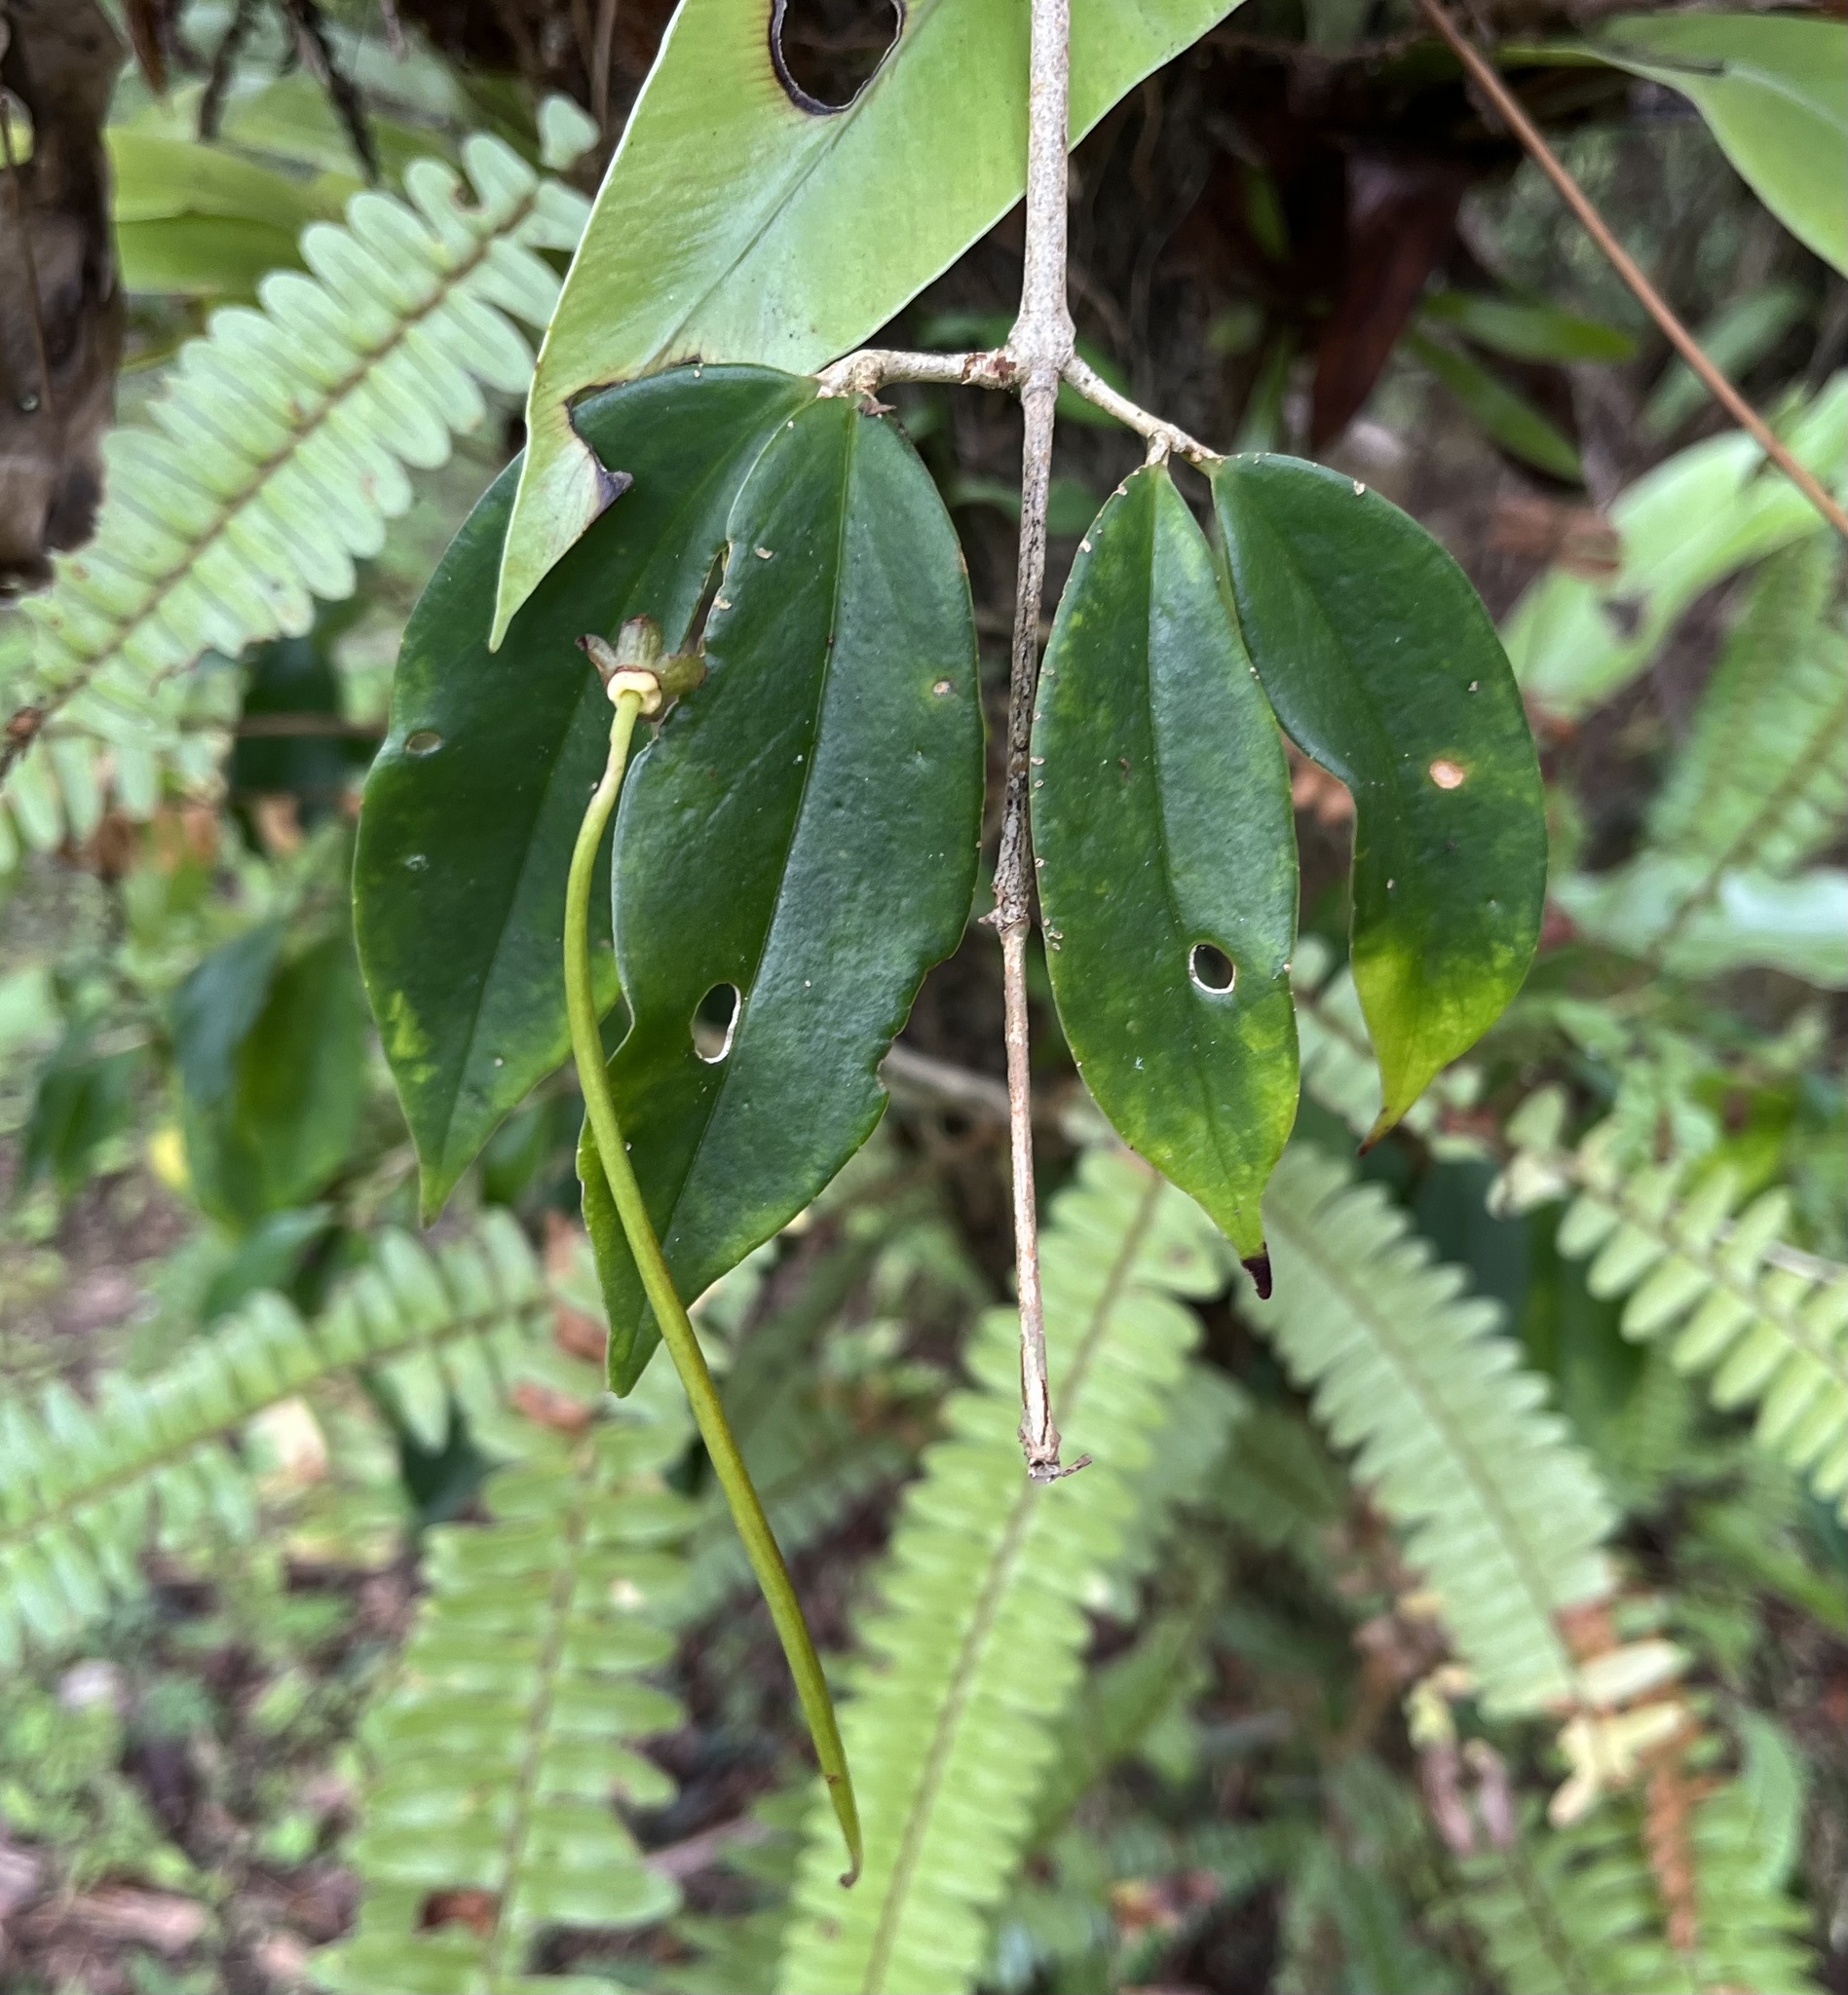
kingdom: Plantae
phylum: Tracheophyta
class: Magnoliopsida
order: Lamiales
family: Gesneriaceae
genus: Aeschynanthus
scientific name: Aeschynanthus acuminatus
